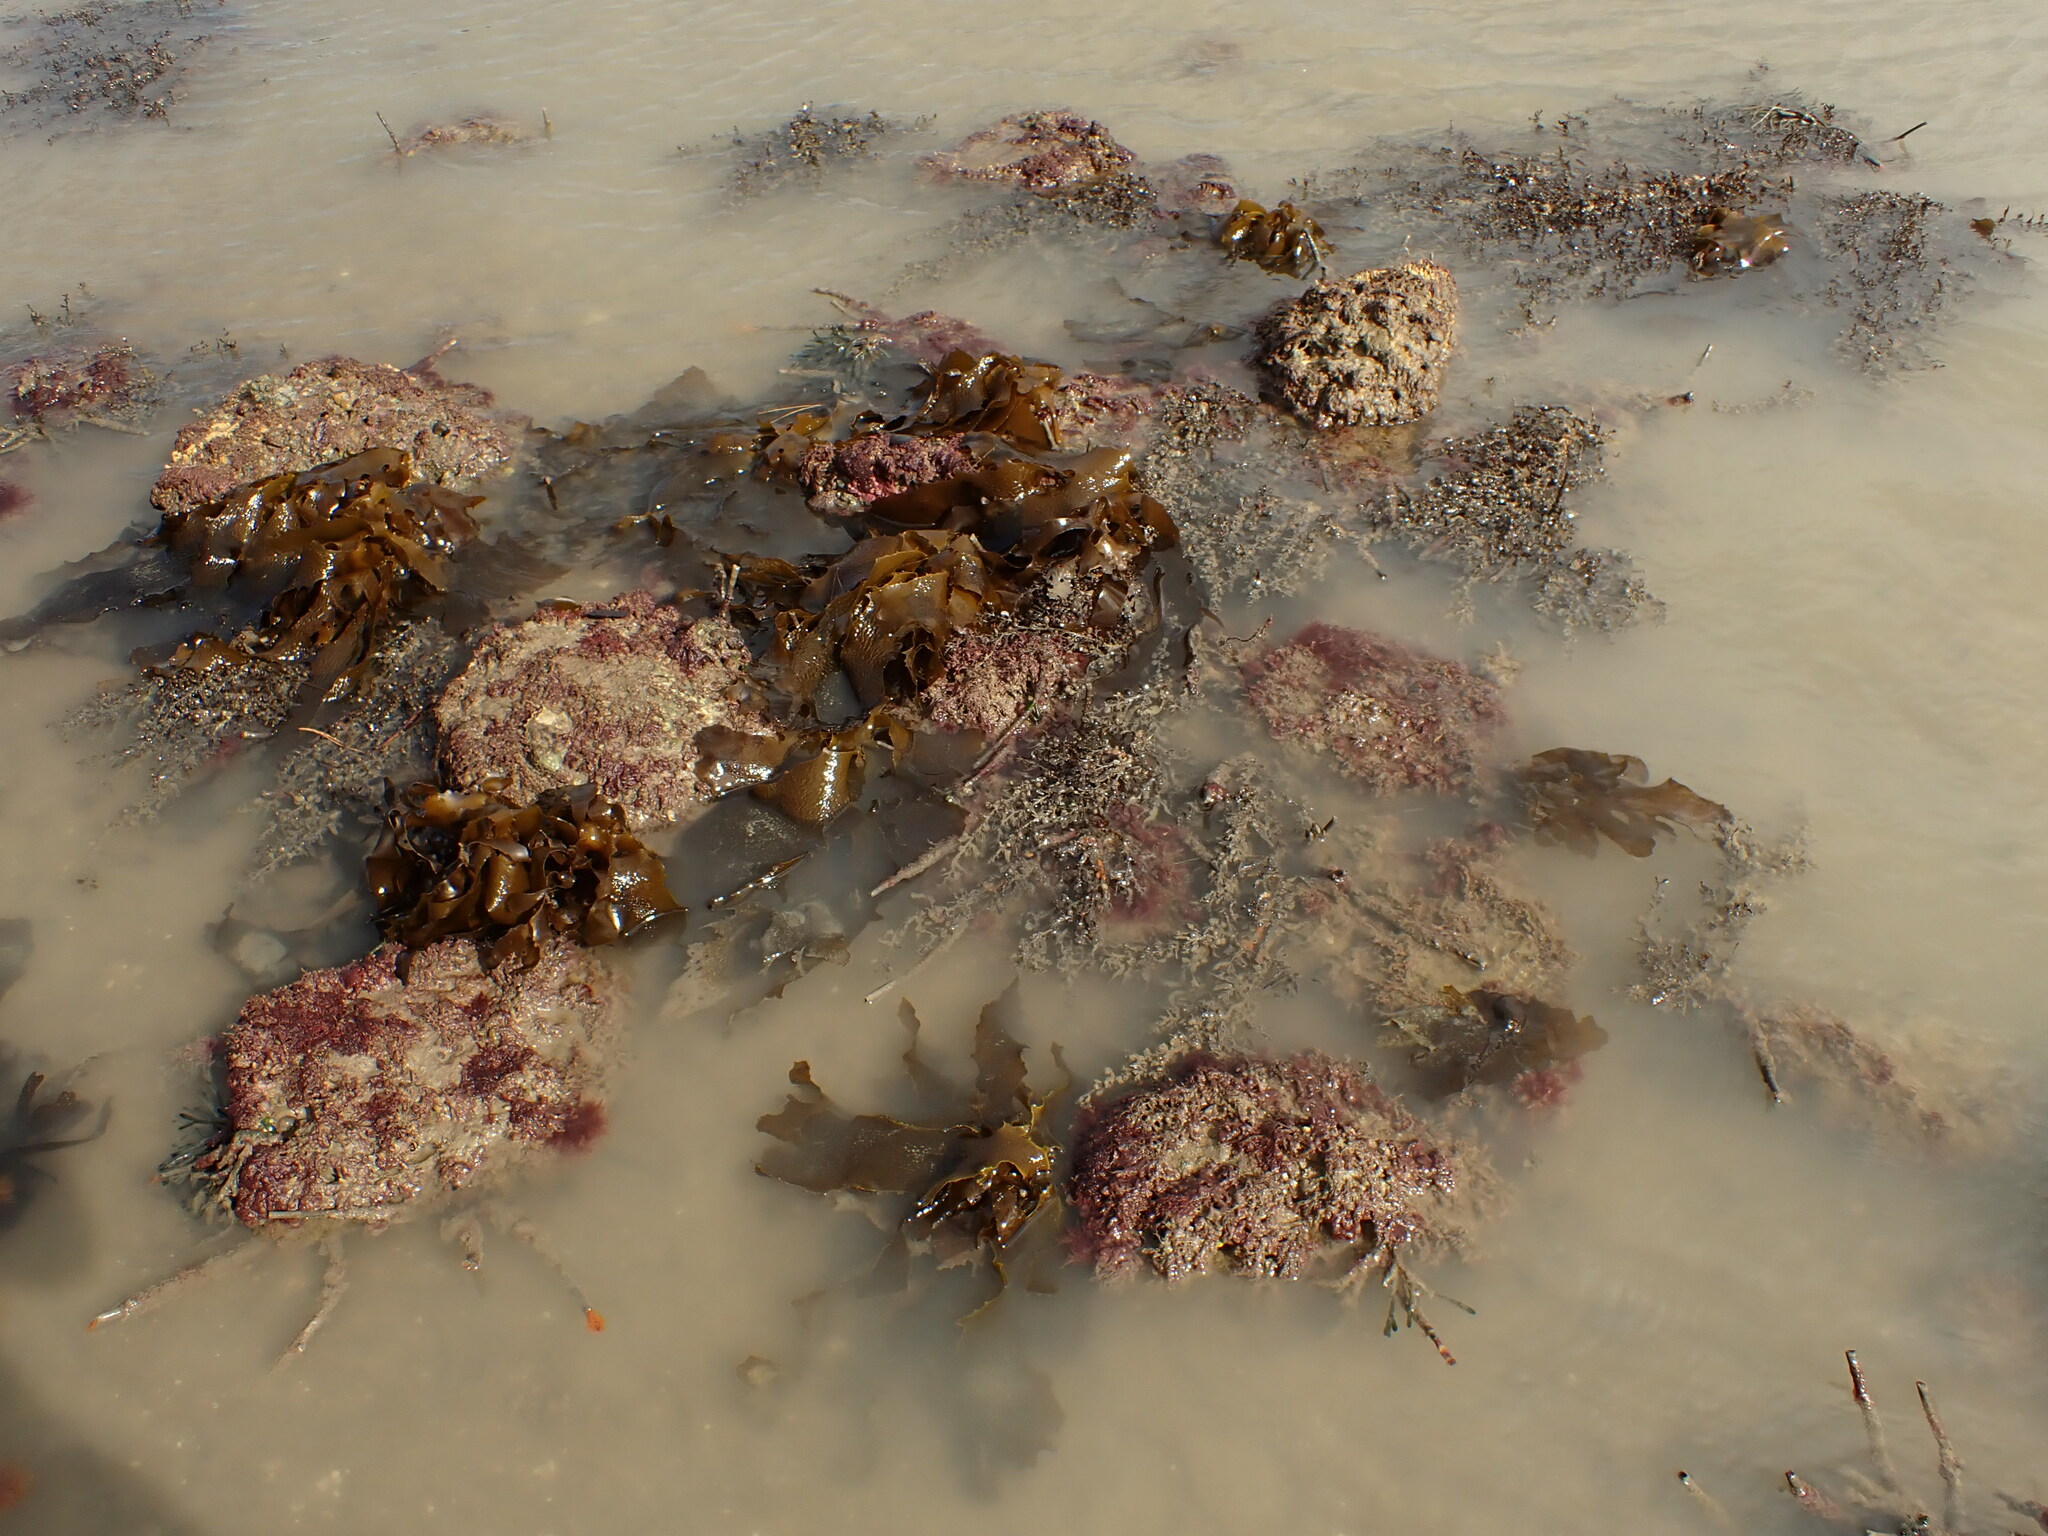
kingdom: Chromista
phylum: Ochrophyta
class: Phaeophyceae
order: Laminariales
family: Lessoniaceae
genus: Ecklonia
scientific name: Ecklonia radiata
